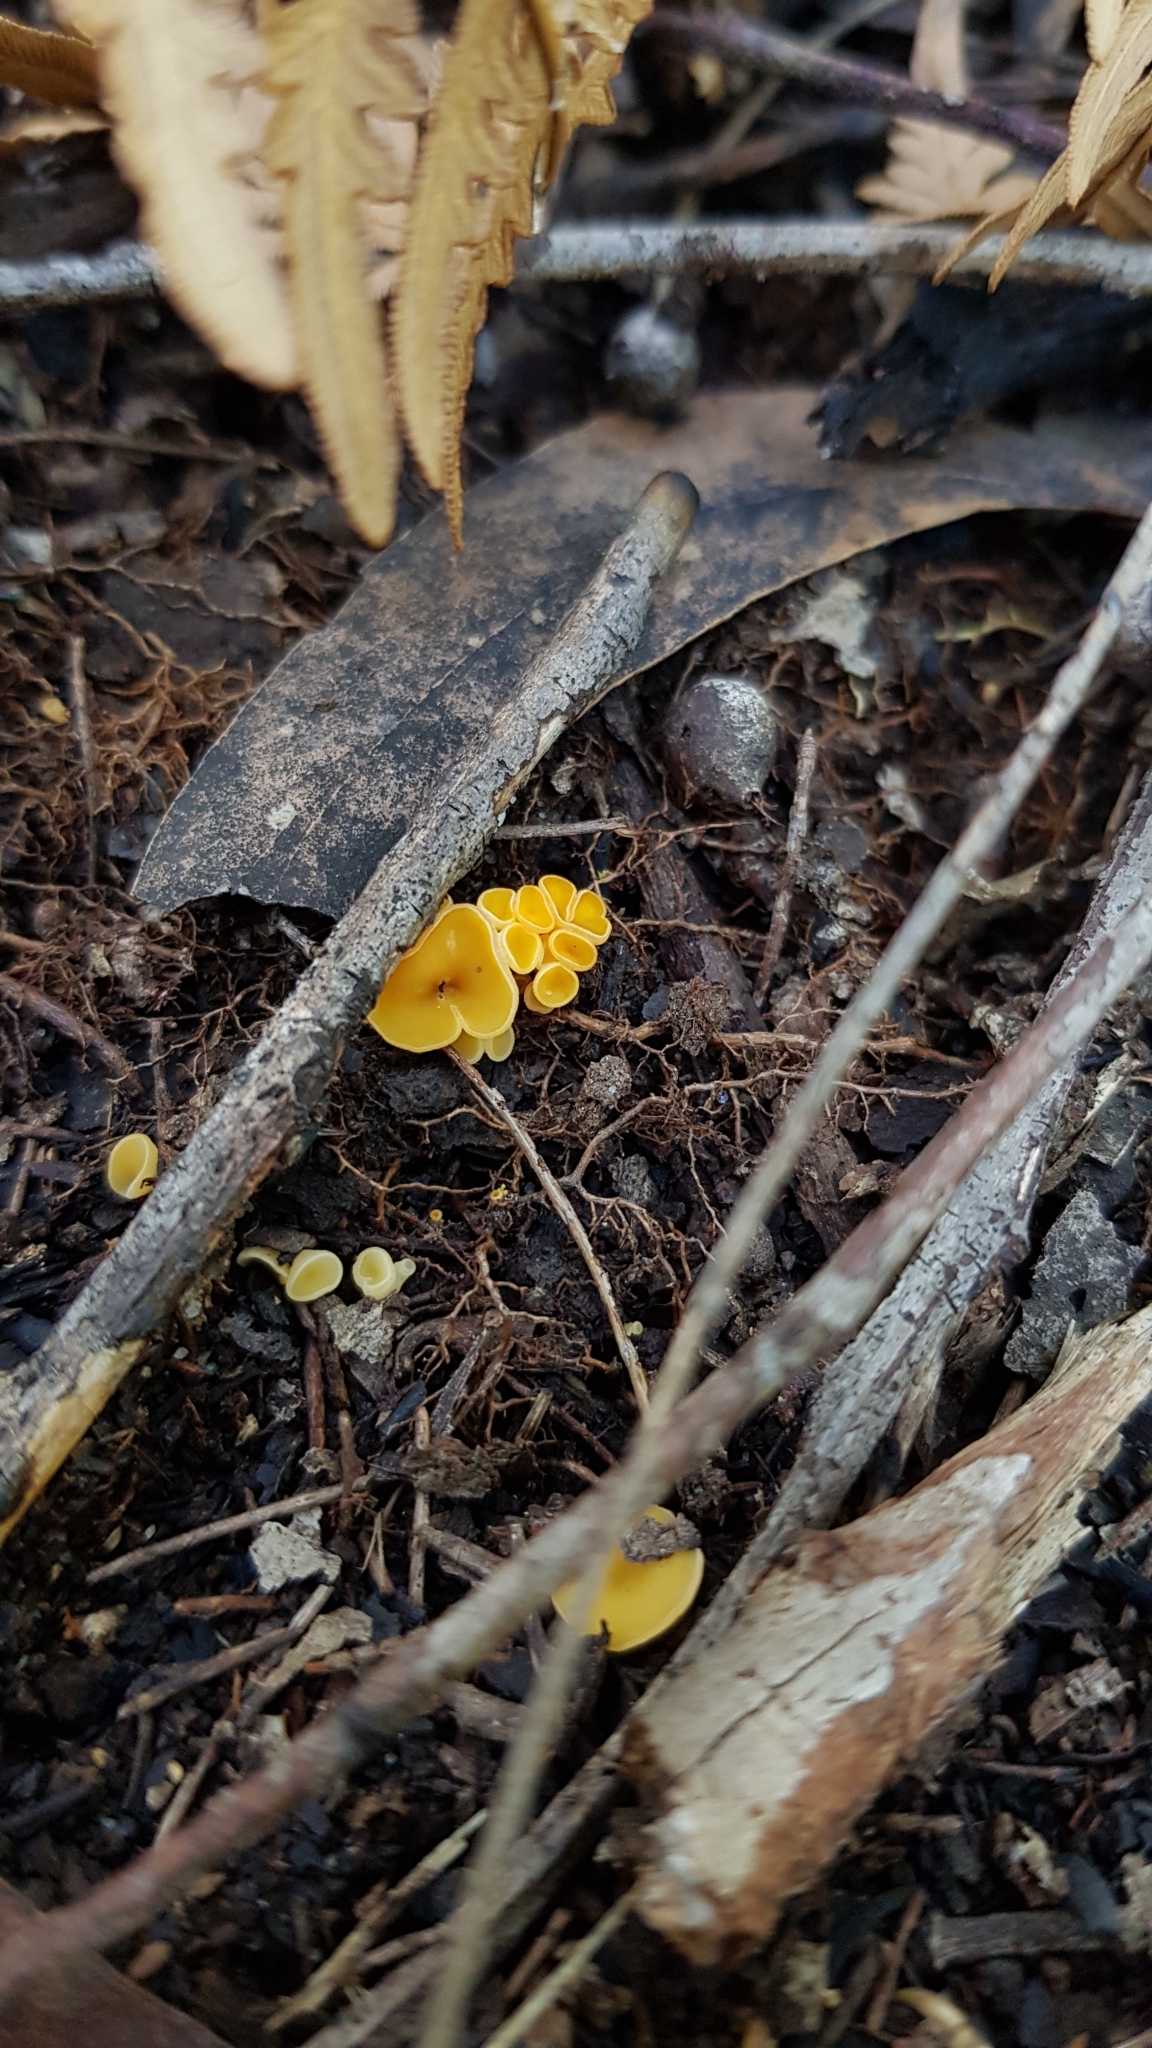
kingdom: Fungi
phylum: Ascomycota
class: Leotiomycetes
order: Helotiales
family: Helotiaceae
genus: Phaeohelotium
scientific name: Phaeohelotium baileyanum
